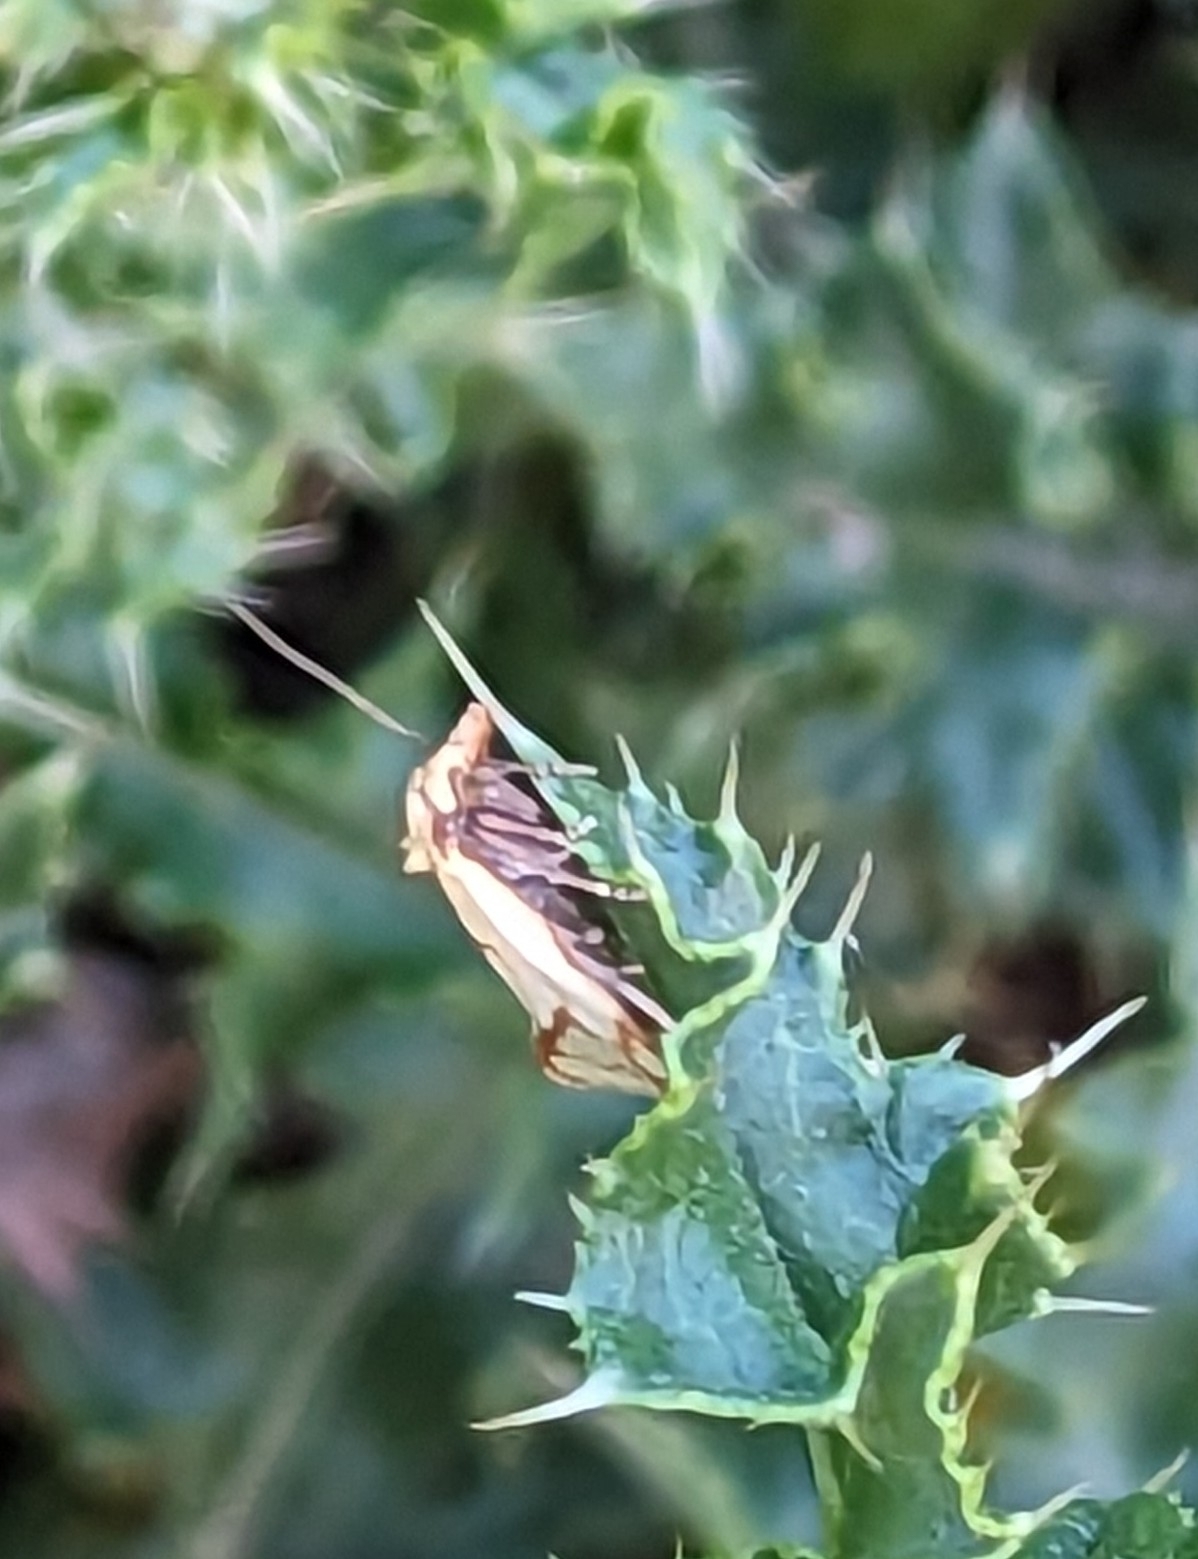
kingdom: Animalia
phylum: Arthropoda
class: Insecta
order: Lepidoptera
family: Tortricidae
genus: Agapeta
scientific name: Agapeta hamana
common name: Common yellow conch
